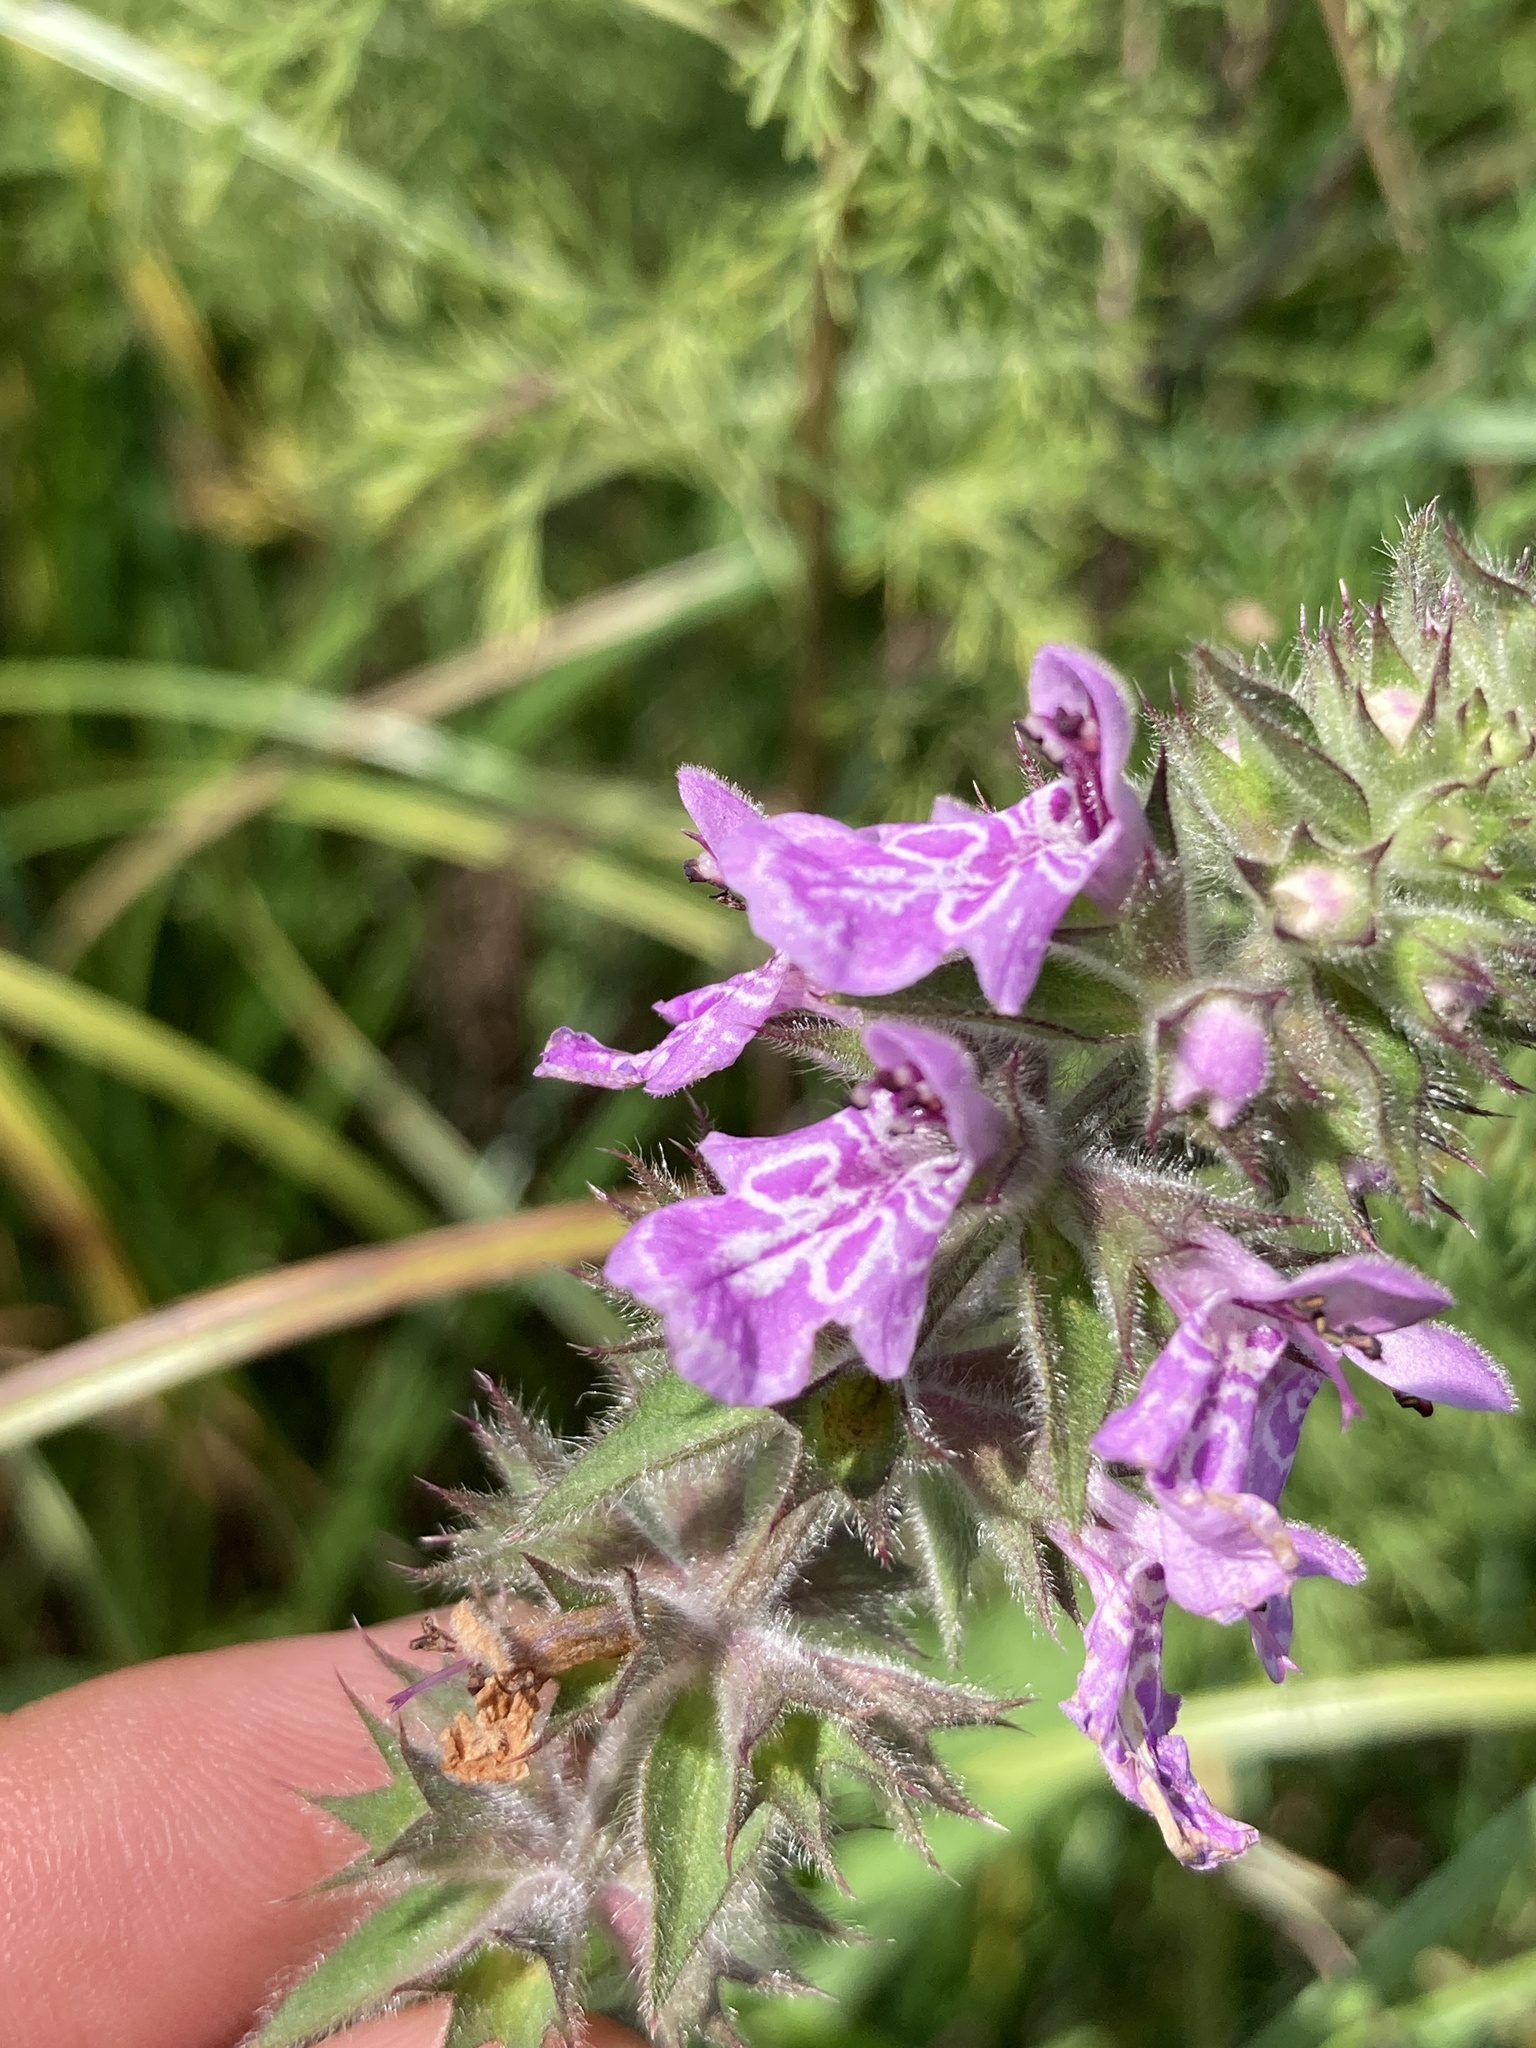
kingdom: Plantae
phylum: Tracheophyta
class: Magnoliopsida
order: Lamiales
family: Lamiaceae
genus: Stachys
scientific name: Stachys palustris
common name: Marsh woundwort
